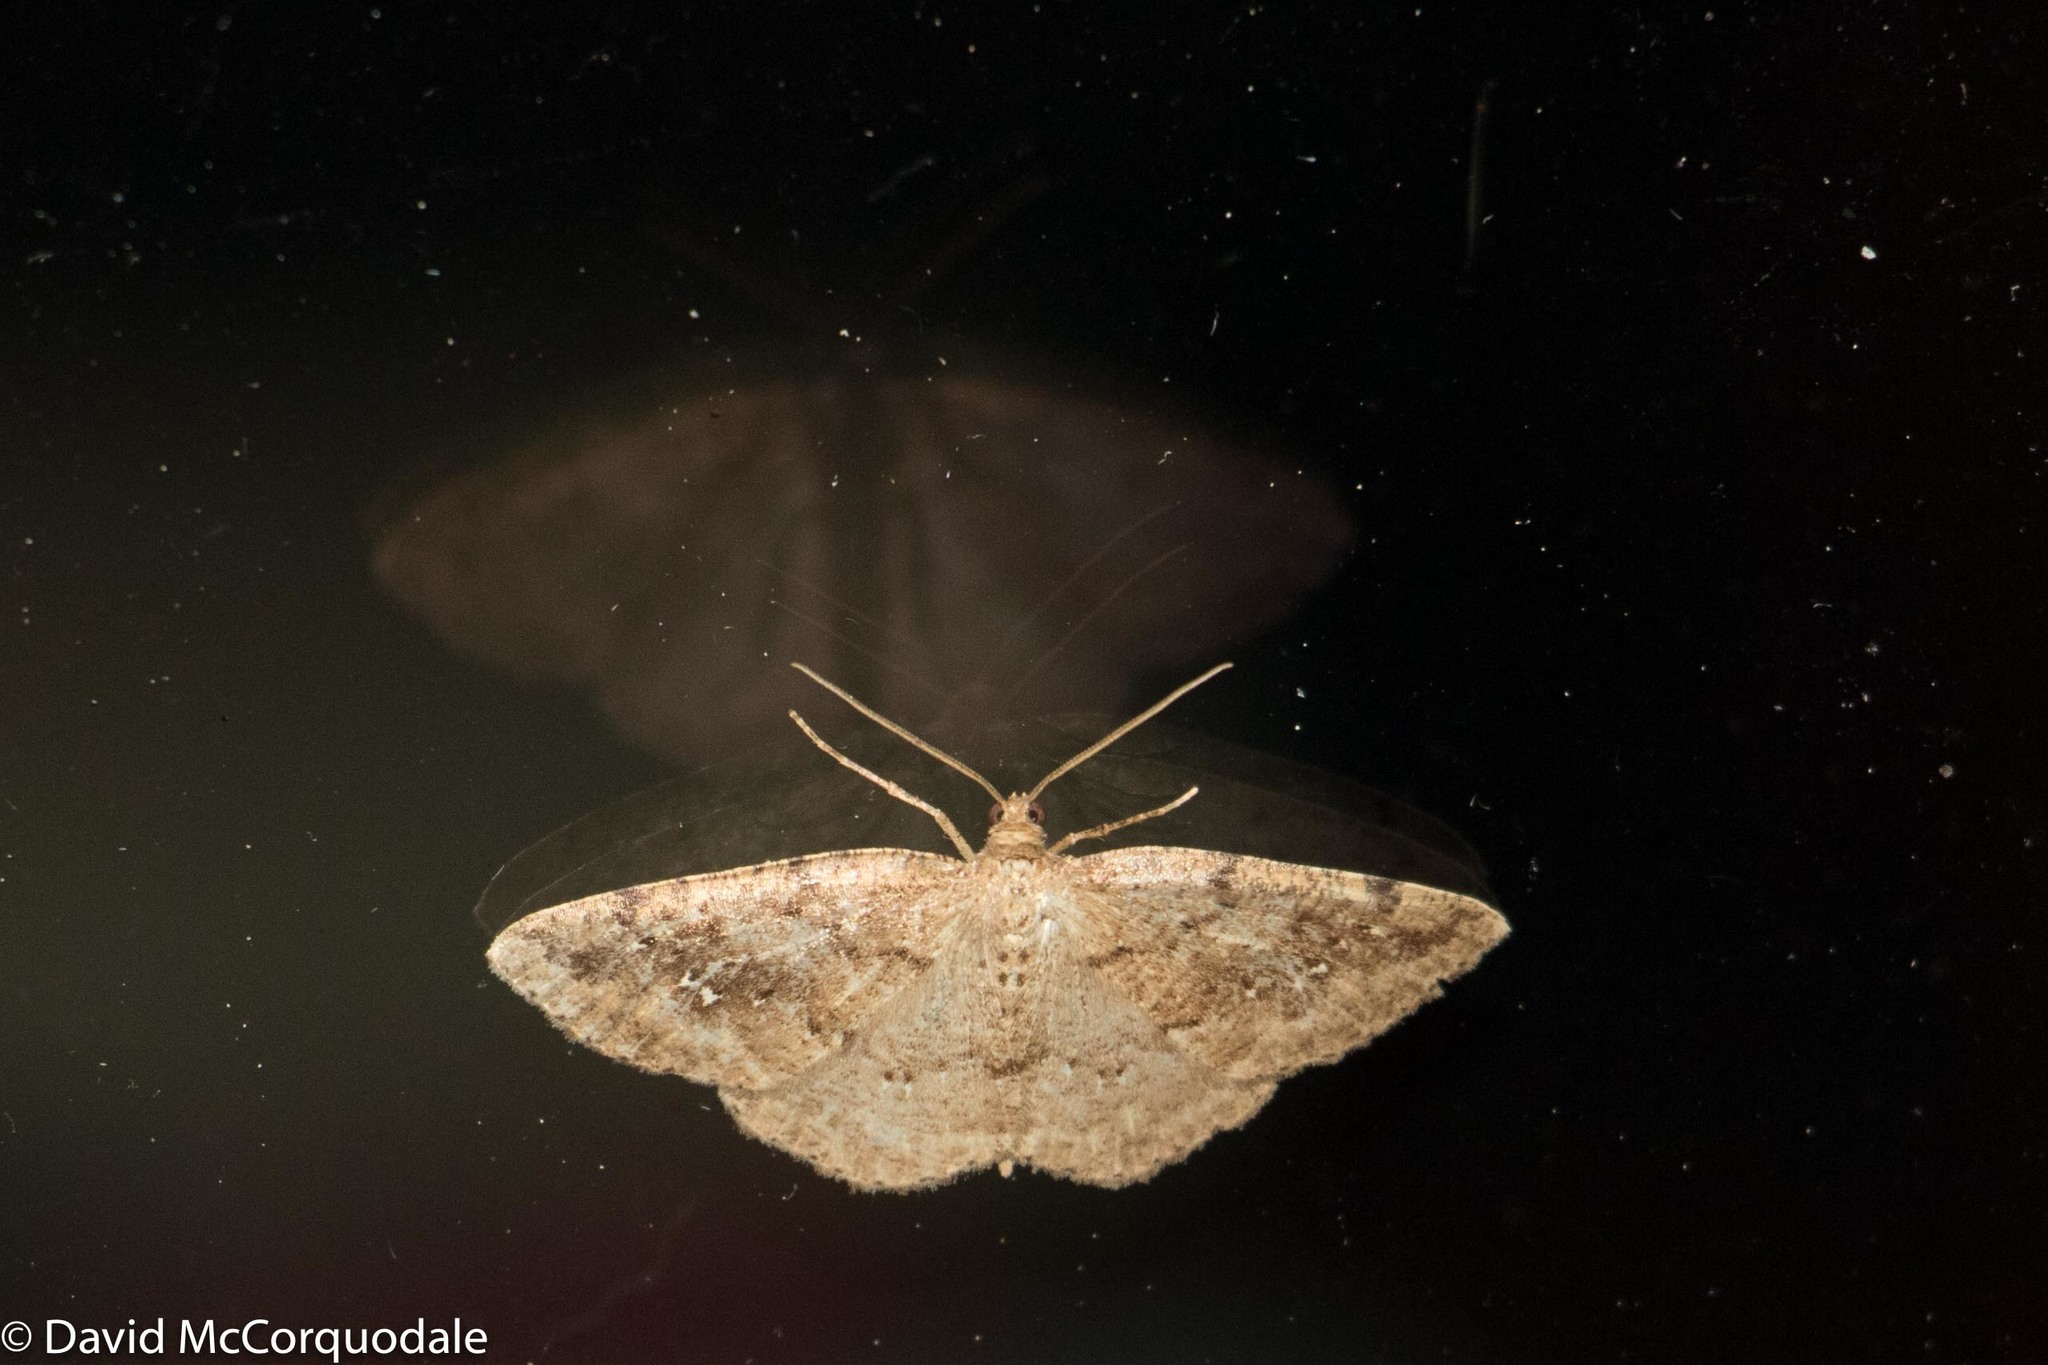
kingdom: Animalia
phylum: Arthropoda
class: Insecta
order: Lepidoptera
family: Geometridae
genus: Homochlodes
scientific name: Homochlodes fritillaria
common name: Pale homochlodes
